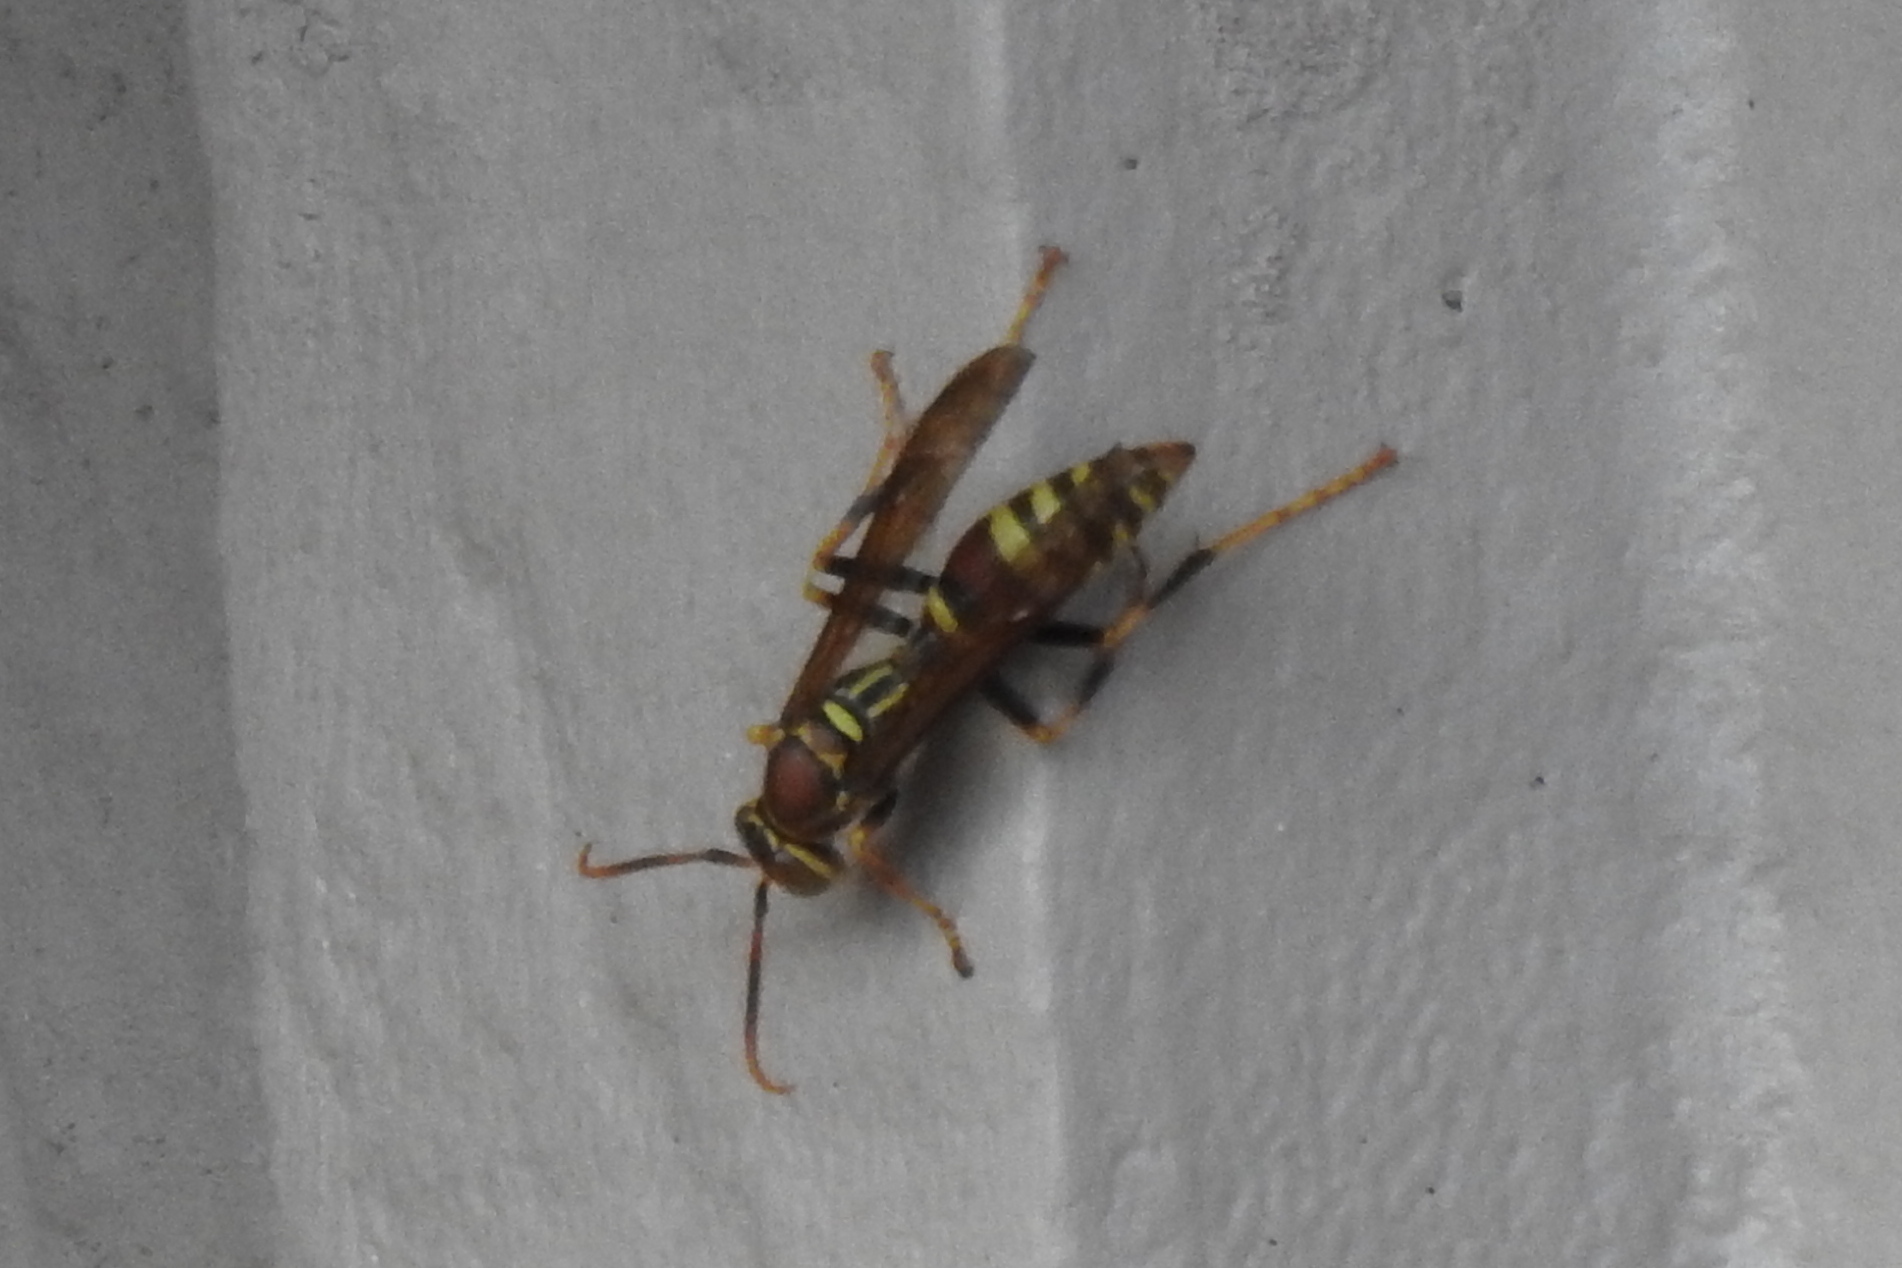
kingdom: Animalia
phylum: Arthropoda
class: Insecta
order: Hymenoptera
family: Eumenidae
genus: Polistes
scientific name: Polistes exclamans
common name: Paper wasp
